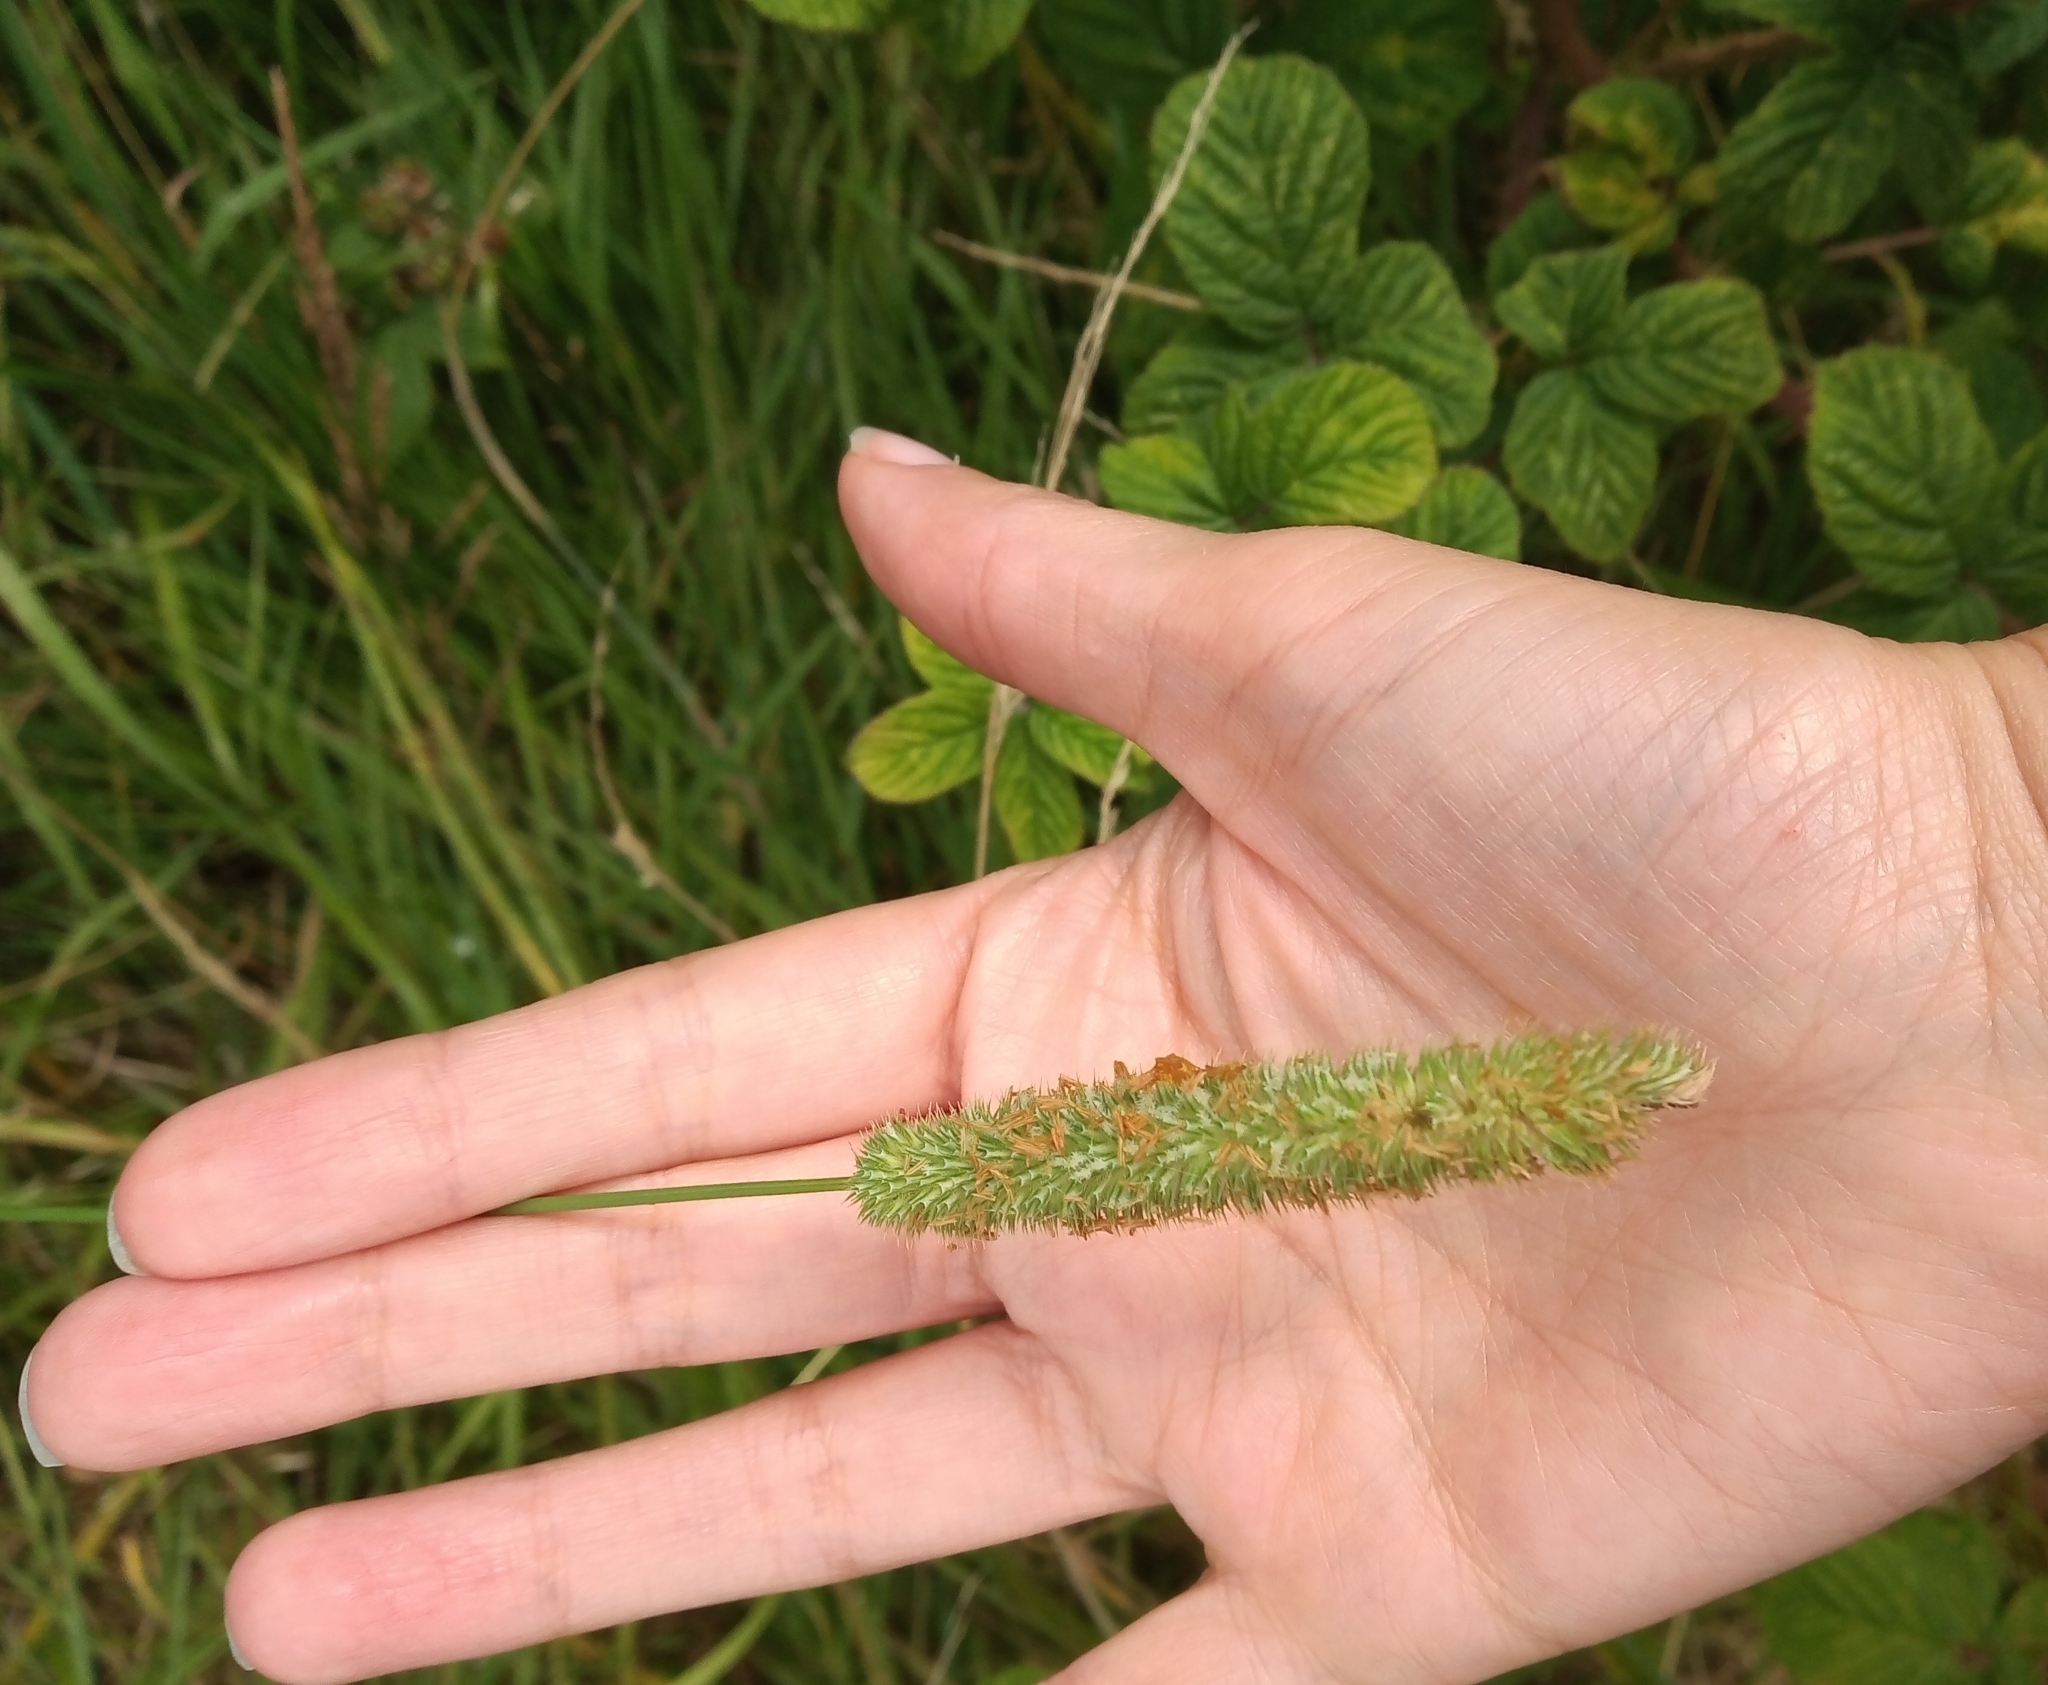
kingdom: Plantae
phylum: Tracheophyta
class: Liliopsida
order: Poales
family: Poaceae
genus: Phleum
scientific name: Phleum pratense
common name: Timothy grass
